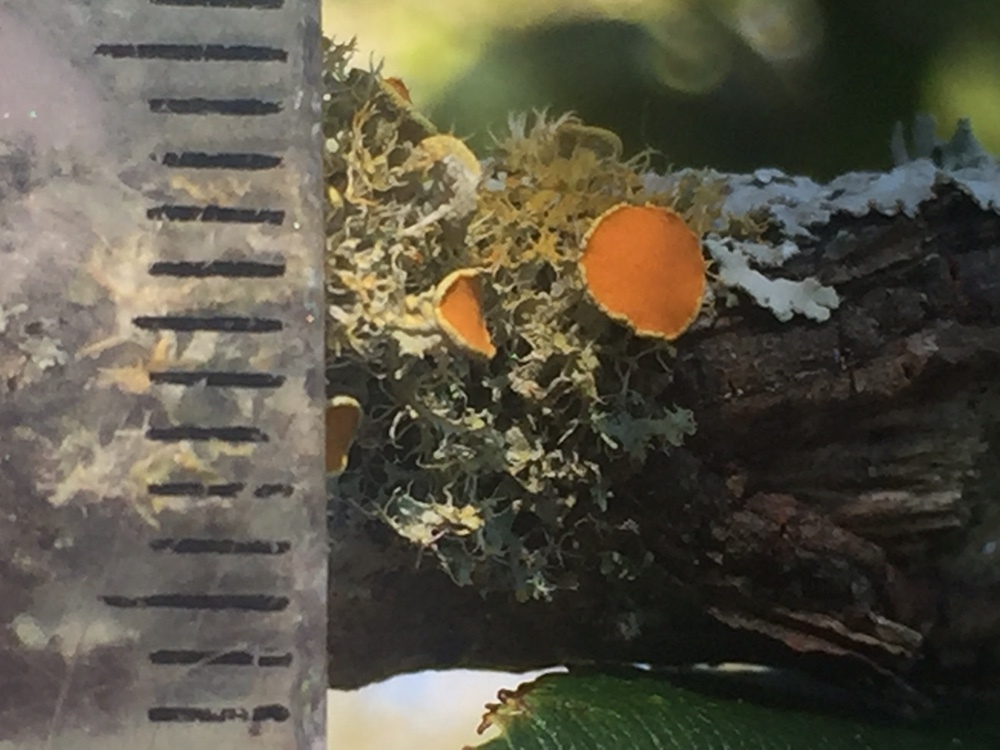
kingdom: Fungi
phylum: Ascomycota
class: Lecanoromycetes
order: Teloschistales
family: Teloschistaceae
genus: Teloschistes
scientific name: Teloschistes sieberianus
